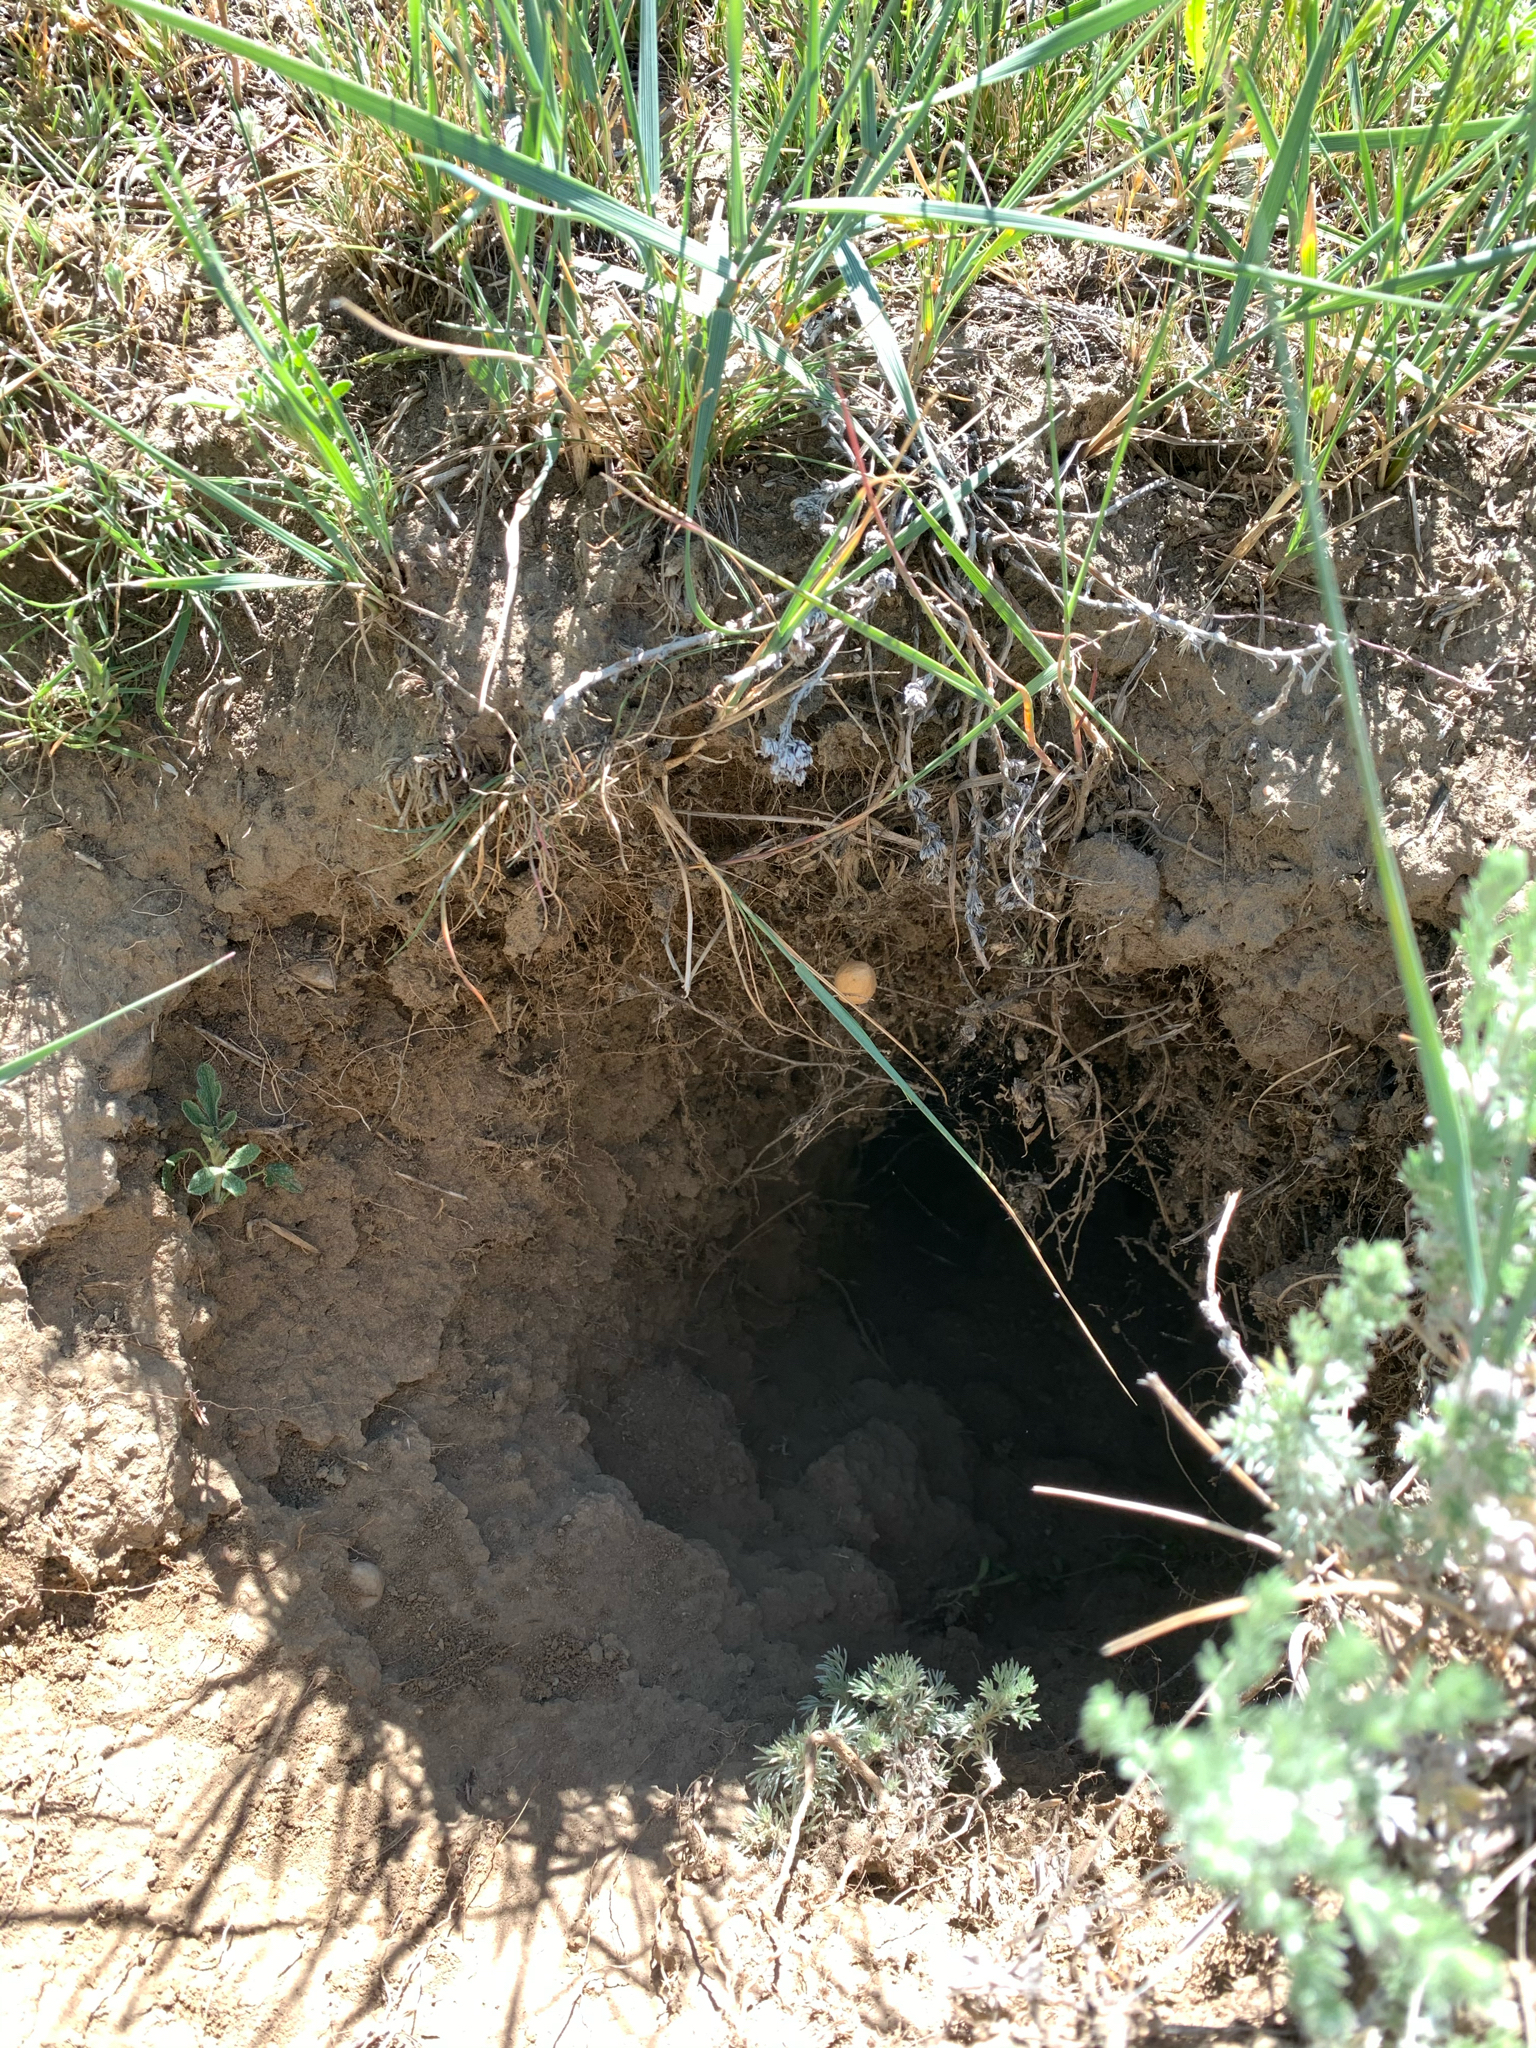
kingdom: Animalia
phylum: Arthropoda
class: Arachnida
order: Araneae
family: Theridiidae
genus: Latrodectus
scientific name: Latrodectus hesperus
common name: Western black widow
